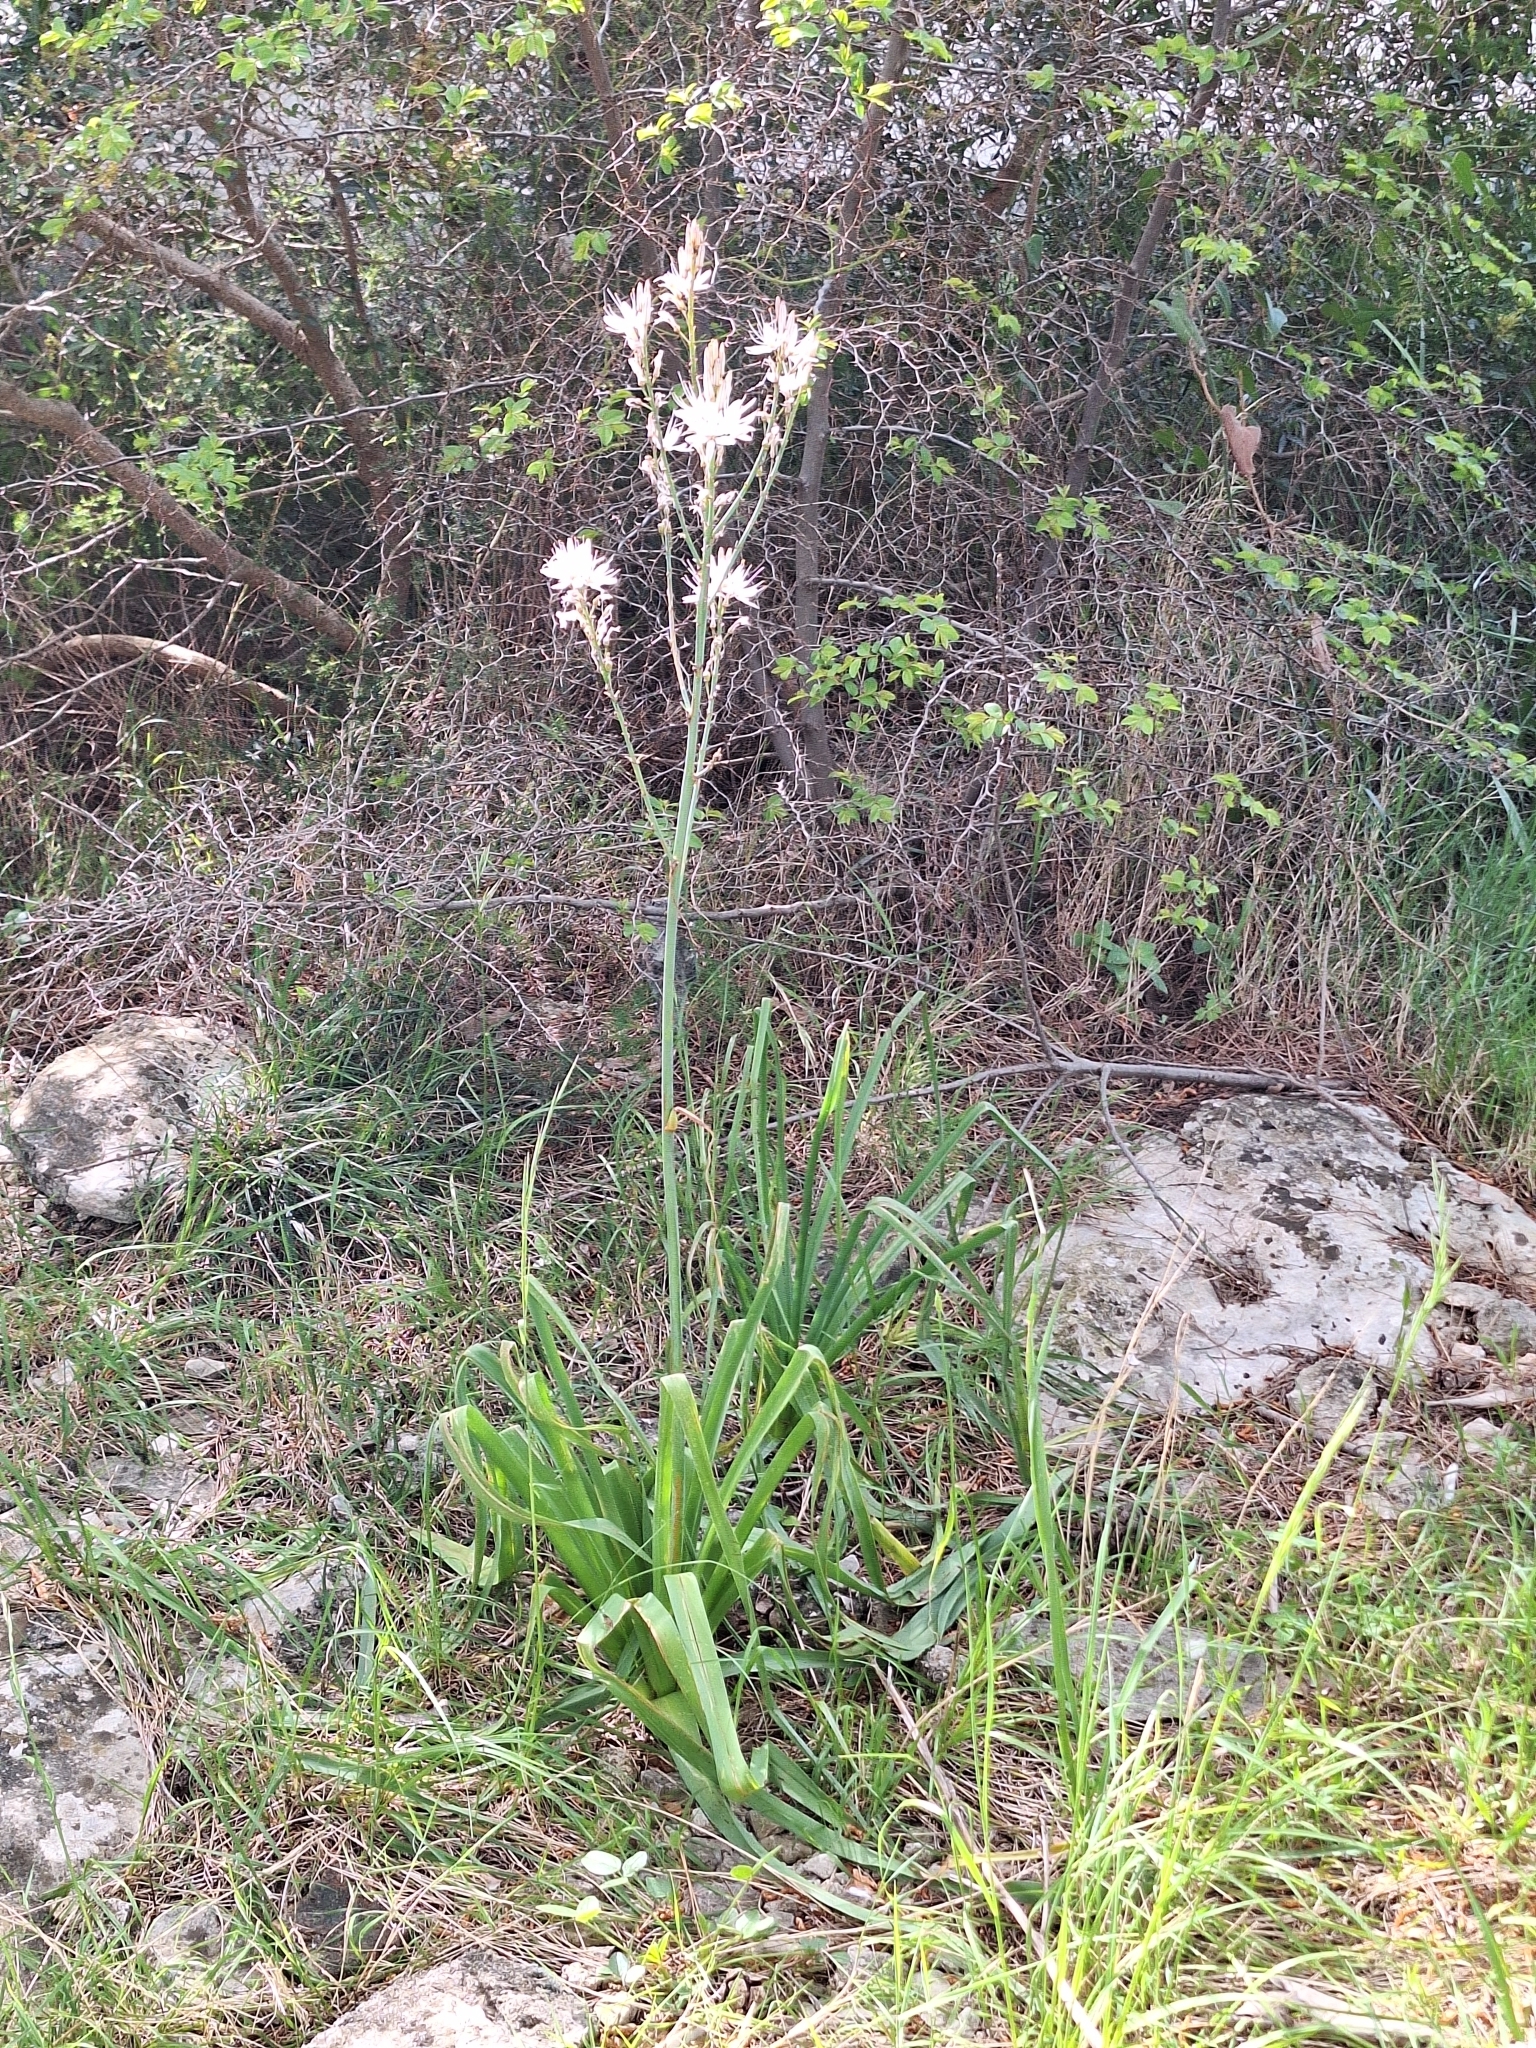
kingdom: Plantae
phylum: Tracheophyta
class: Liliopsida
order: Asparagales
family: Asphodelaceae
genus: Asphodelus
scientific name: Asphodelus ramosus
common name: Silverrod
